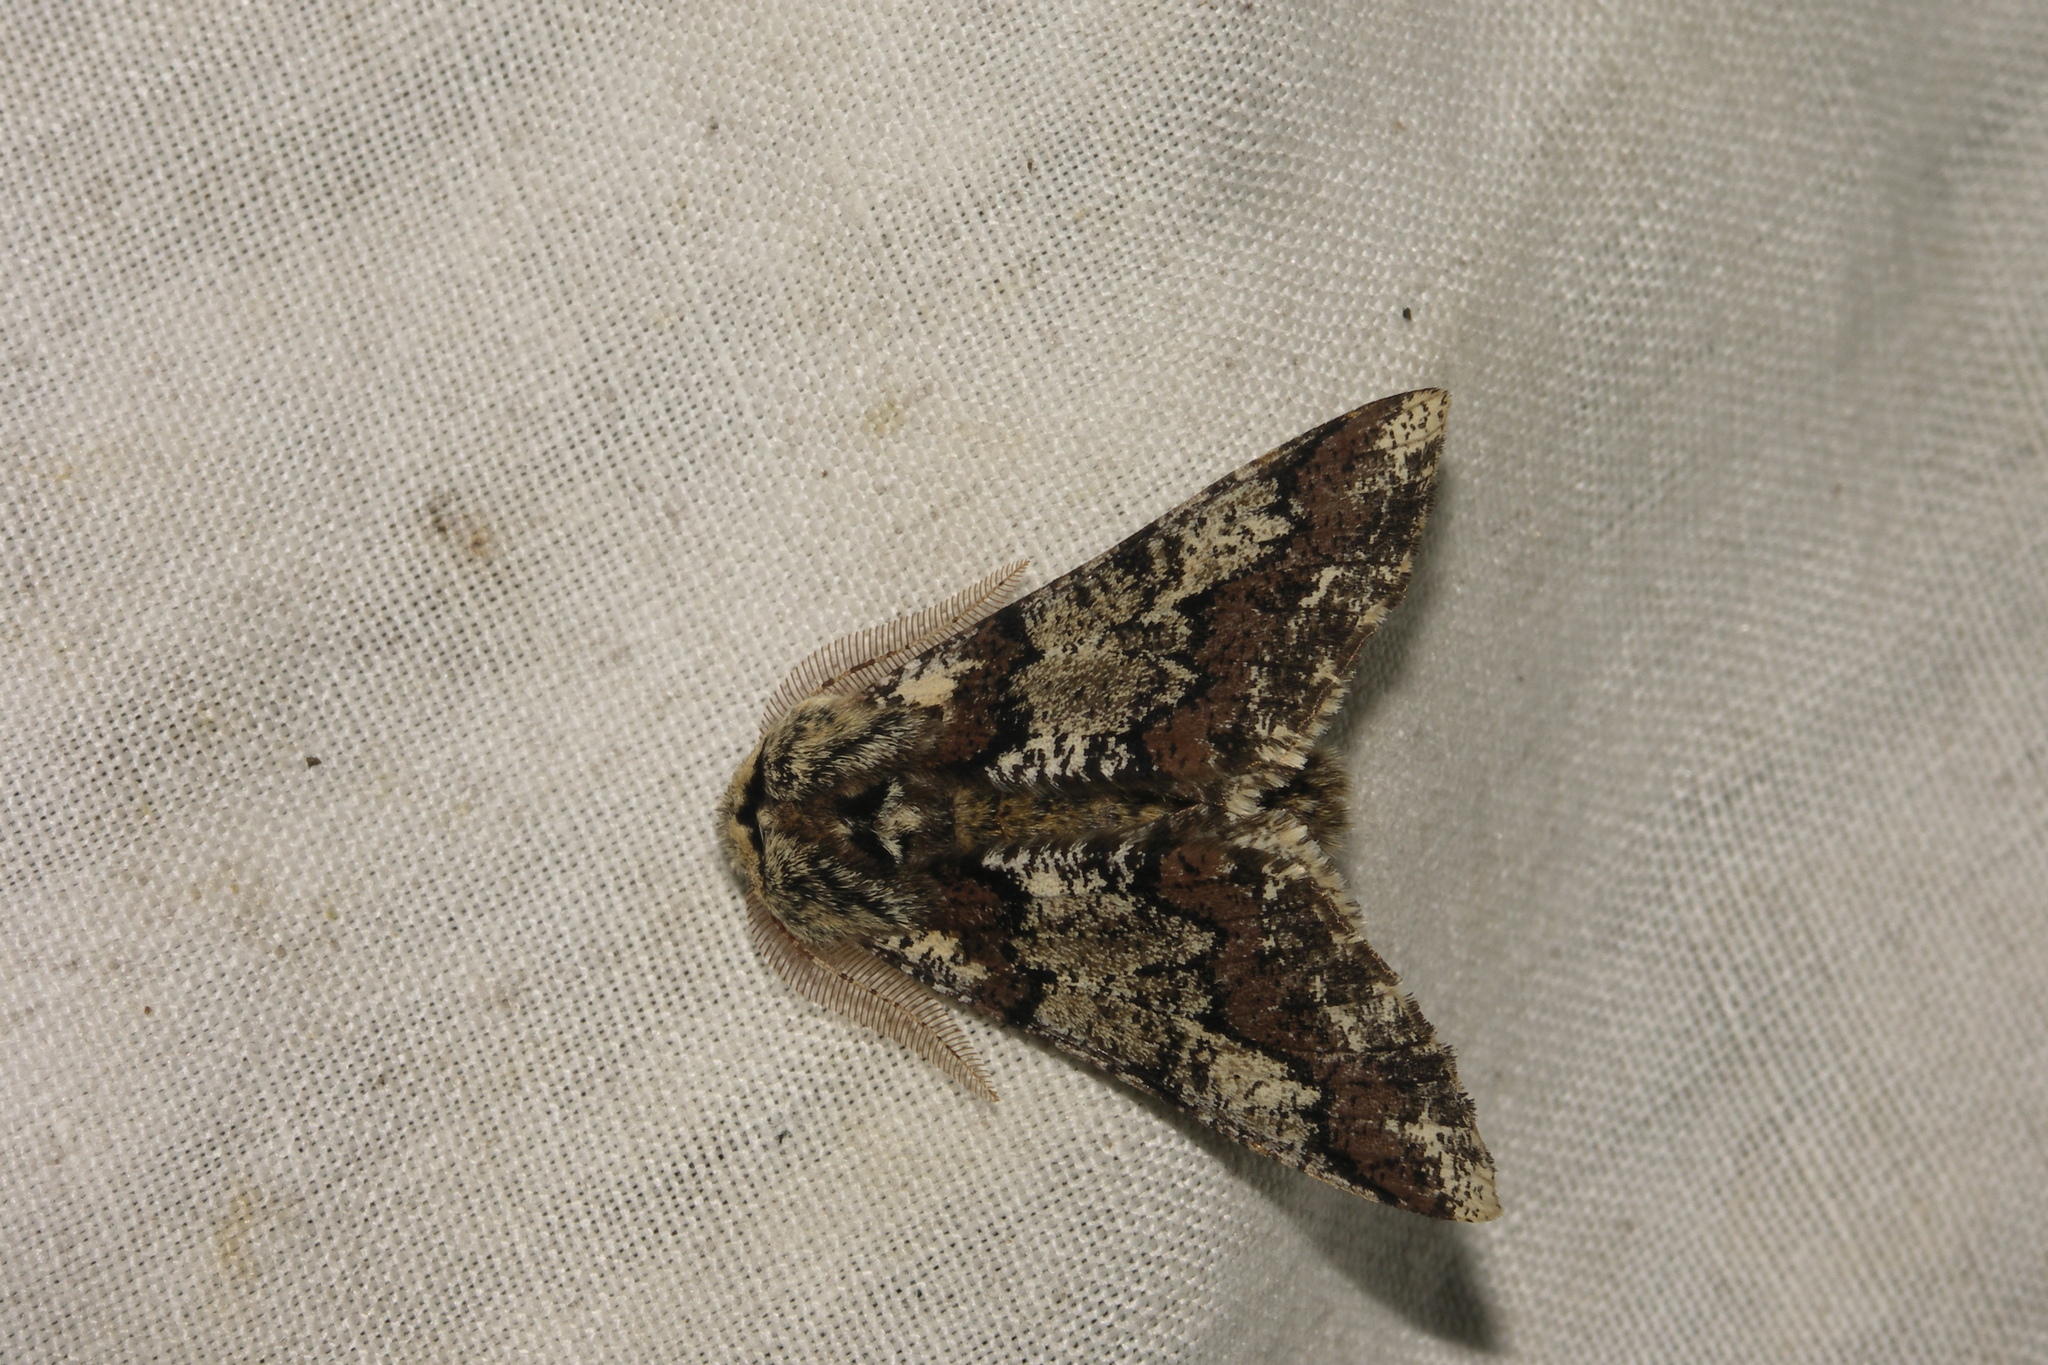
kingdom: Animalia
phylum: Arthropoda
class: Insecta
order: Lepidoptera
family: Geometridae
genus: Biston
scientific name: Biston strataria
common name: Oak beauty
